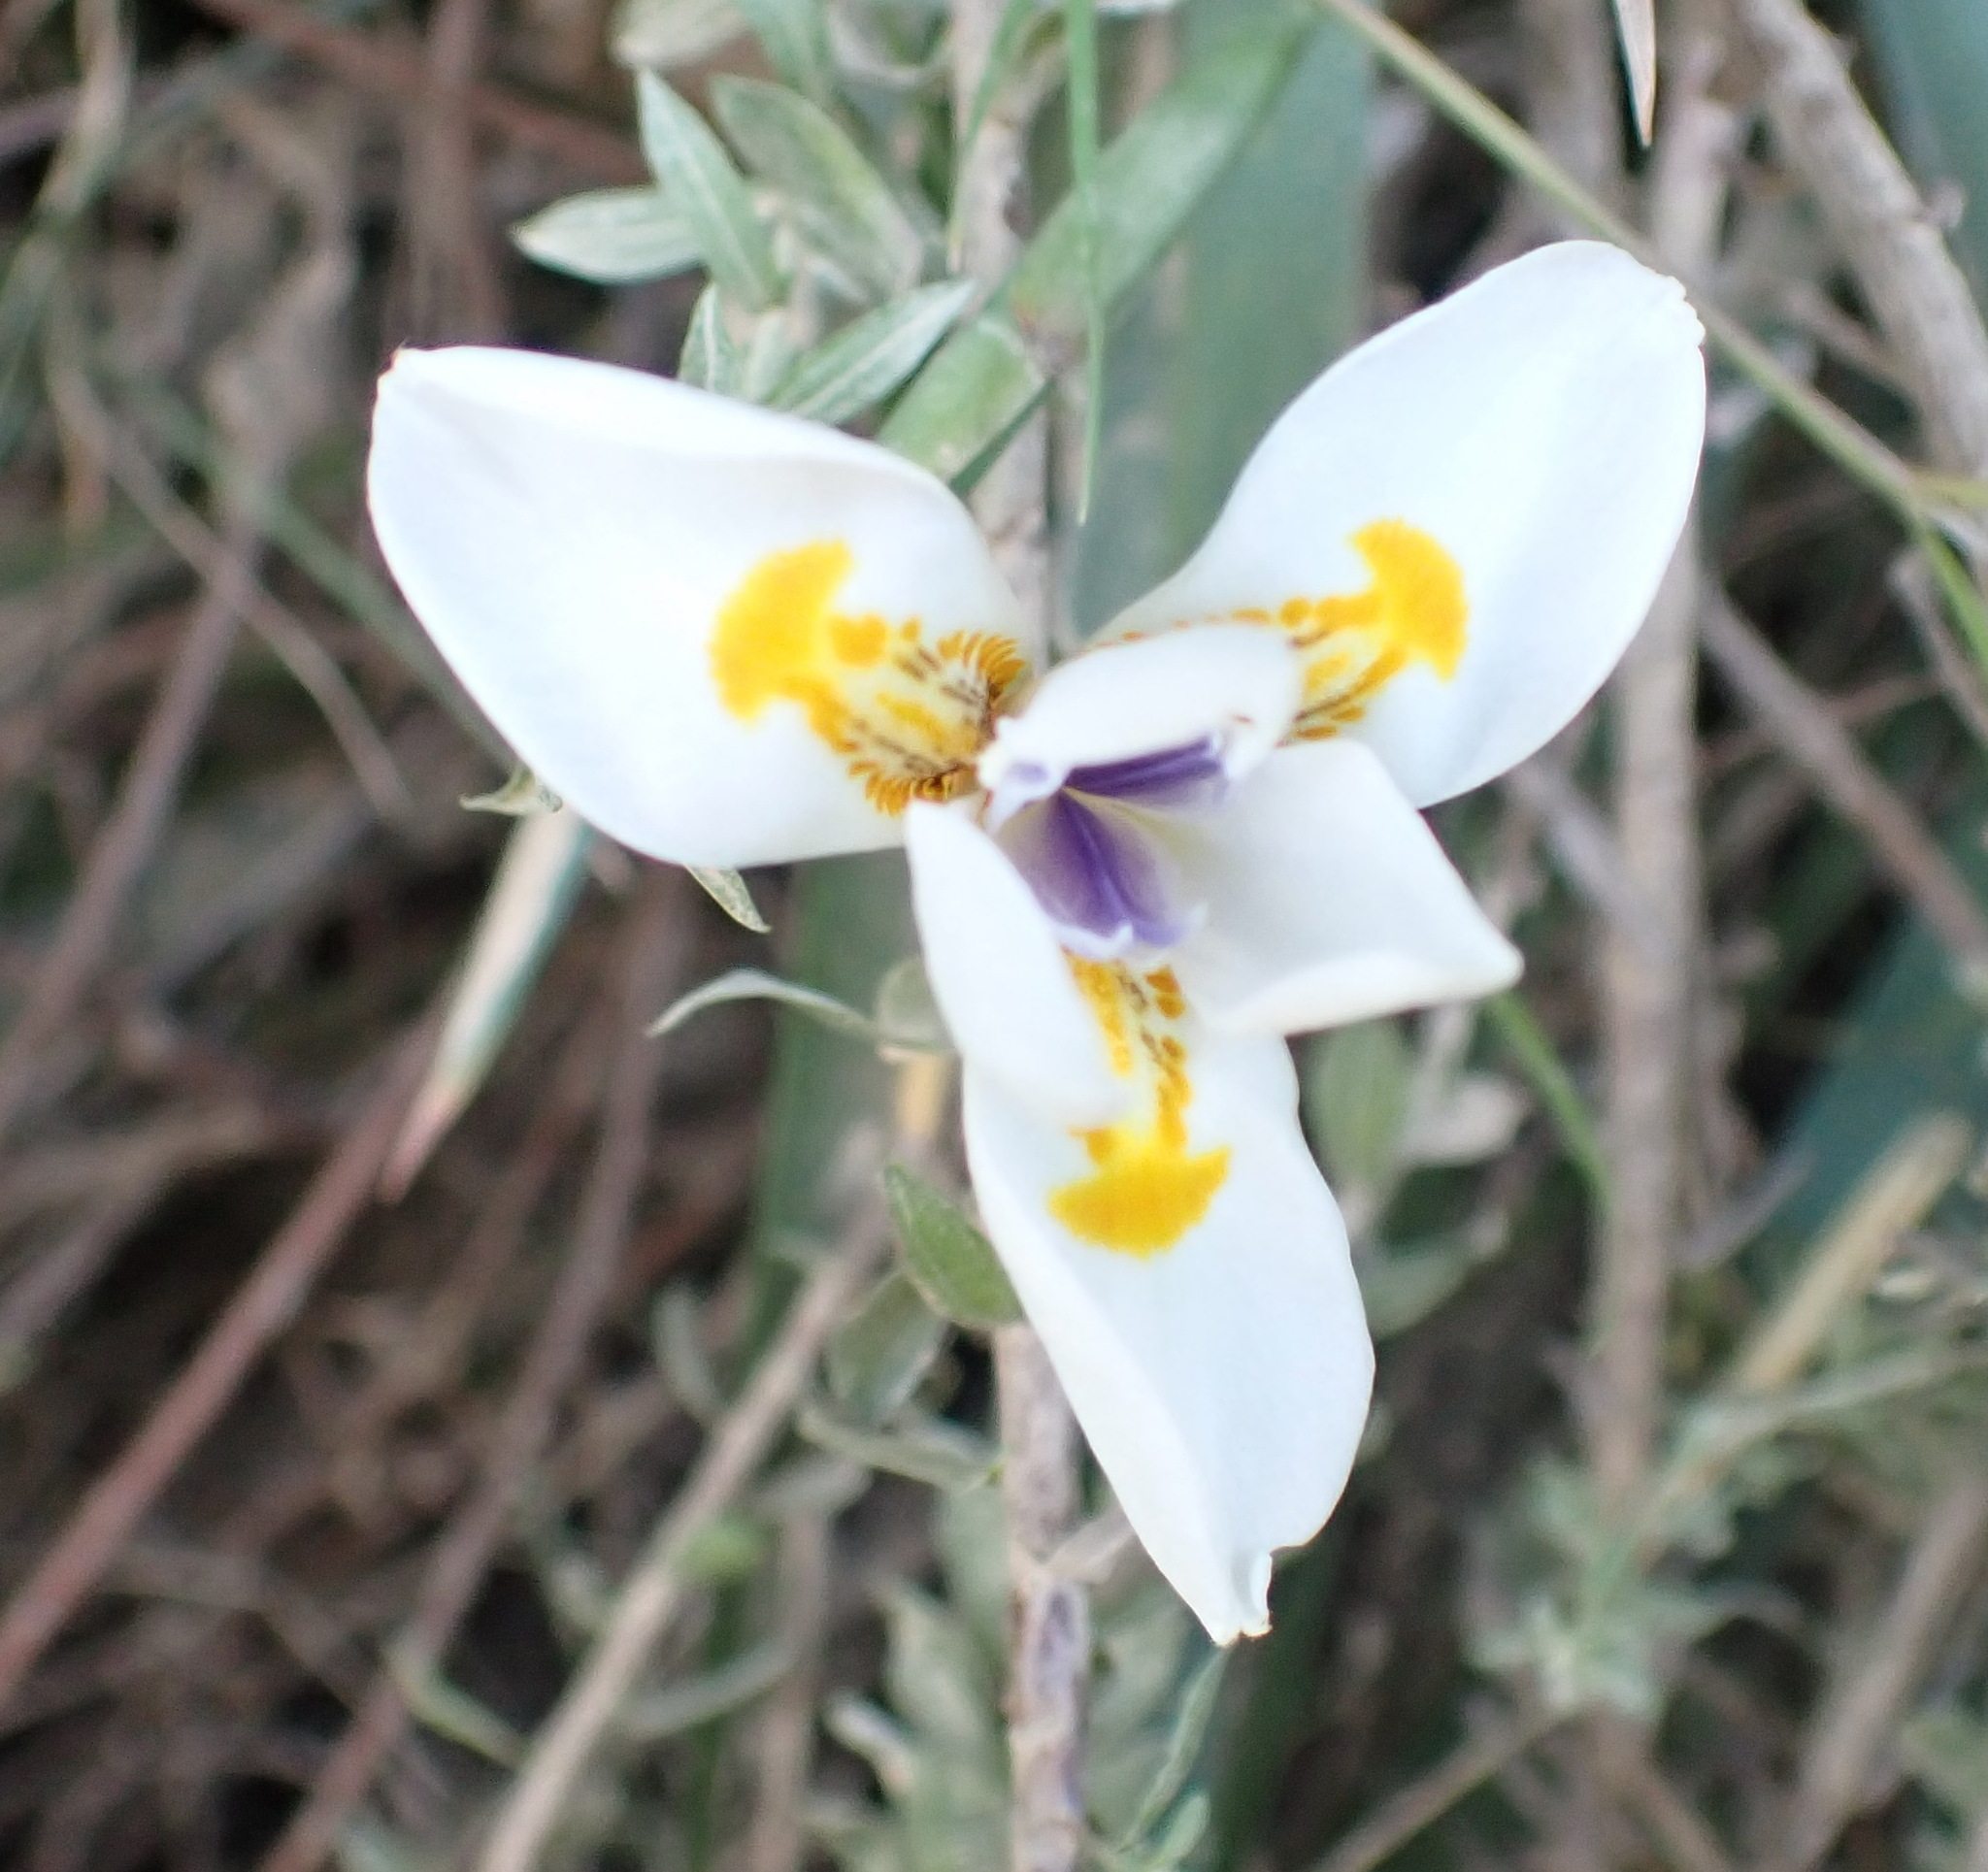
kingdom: Plantae
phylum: Tracheophyta
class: Liliopsida
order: Asparagales
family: Iridaceae
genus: Dietes
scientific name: Dietes iridioides
